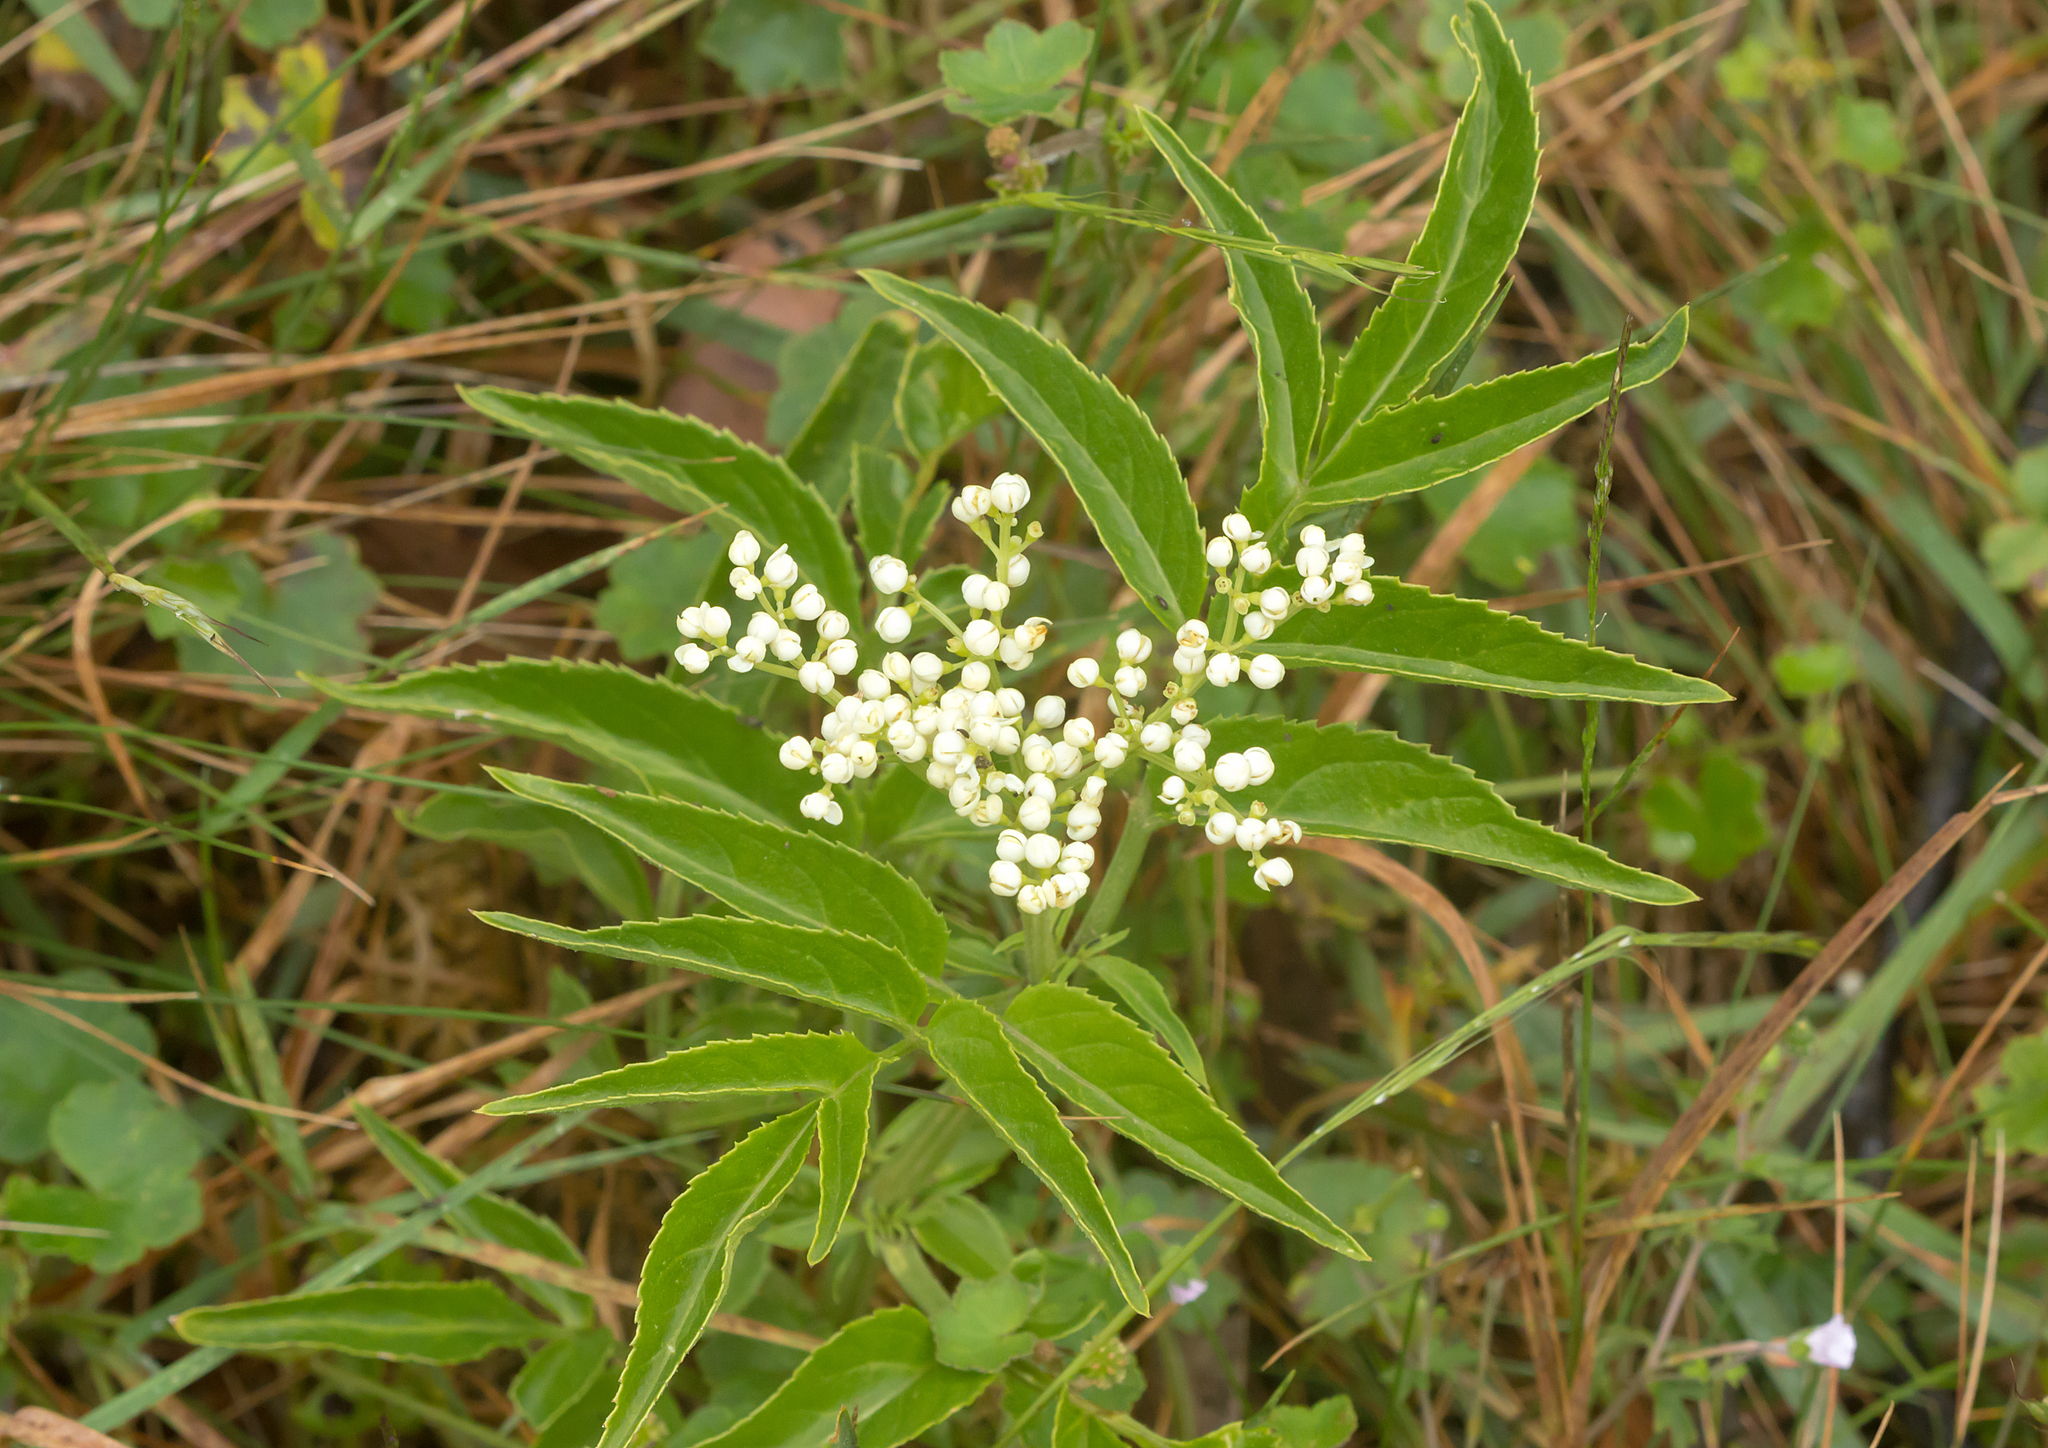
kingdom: Plantae
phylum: Tracheophyta
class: Magnoliopsida
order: Dipsacales
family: Viburnaceae
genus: Sambucus
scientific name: Sambucus gaudichaudiana
